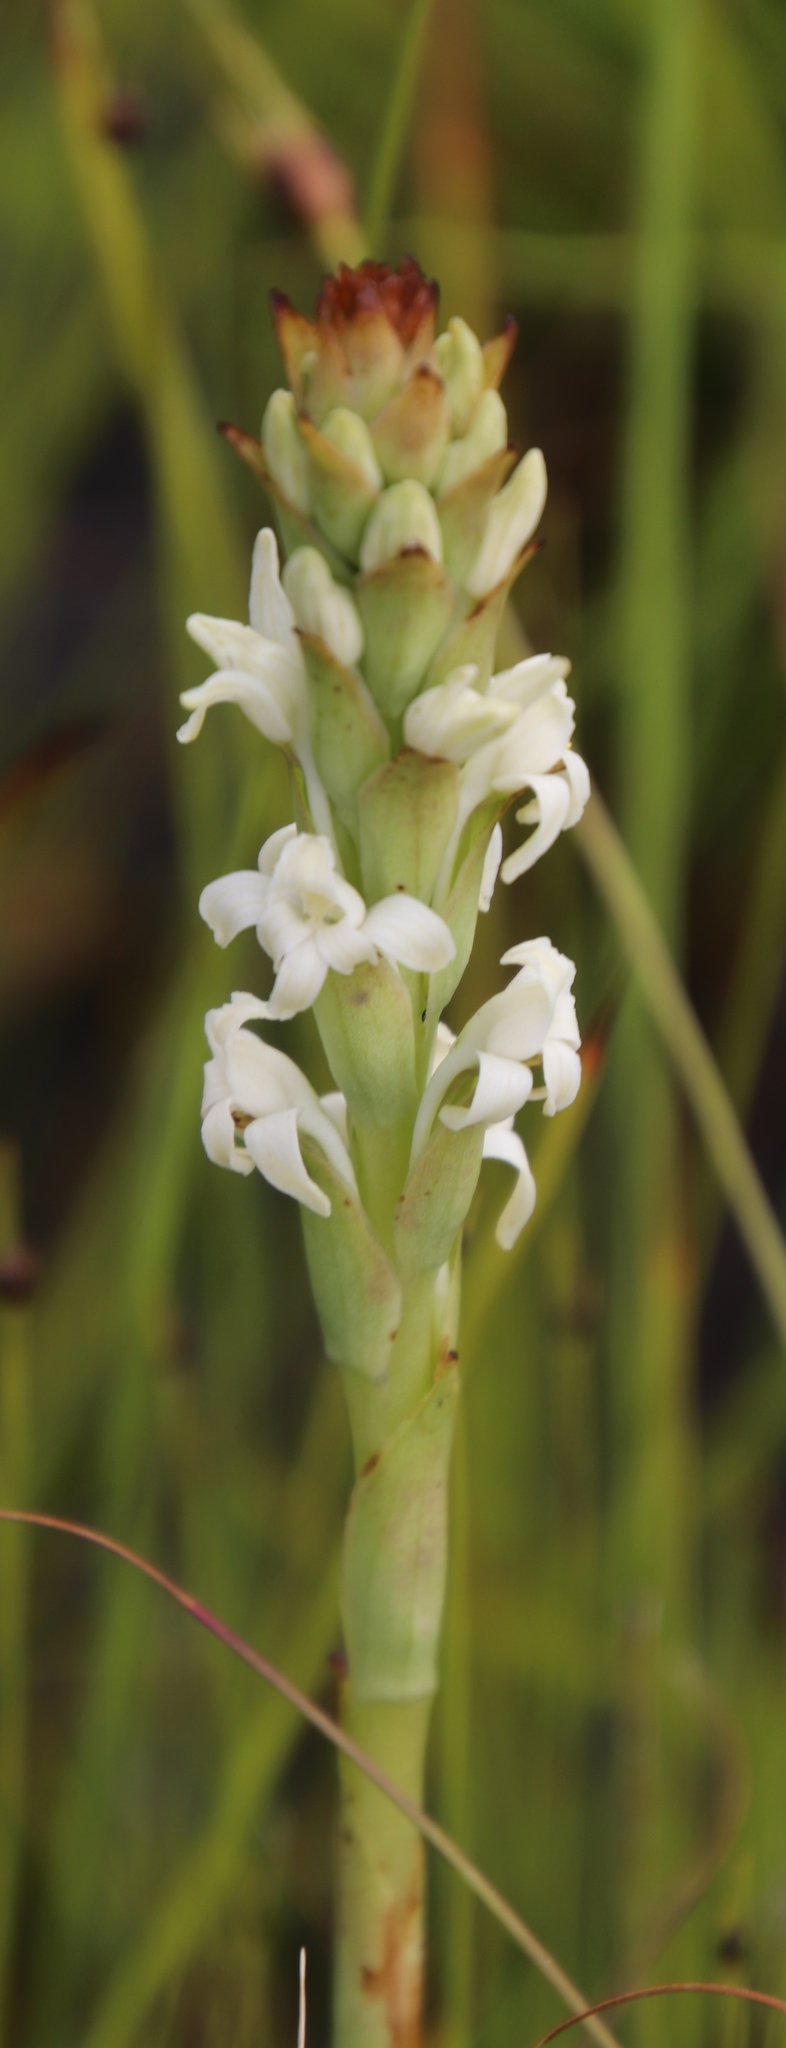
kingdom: Plantae
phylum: Tracheophyta
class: Liliopsida
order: Asparagales
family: Orchidaceae
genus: Satyrium
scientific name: Satyrium stenopetalum
